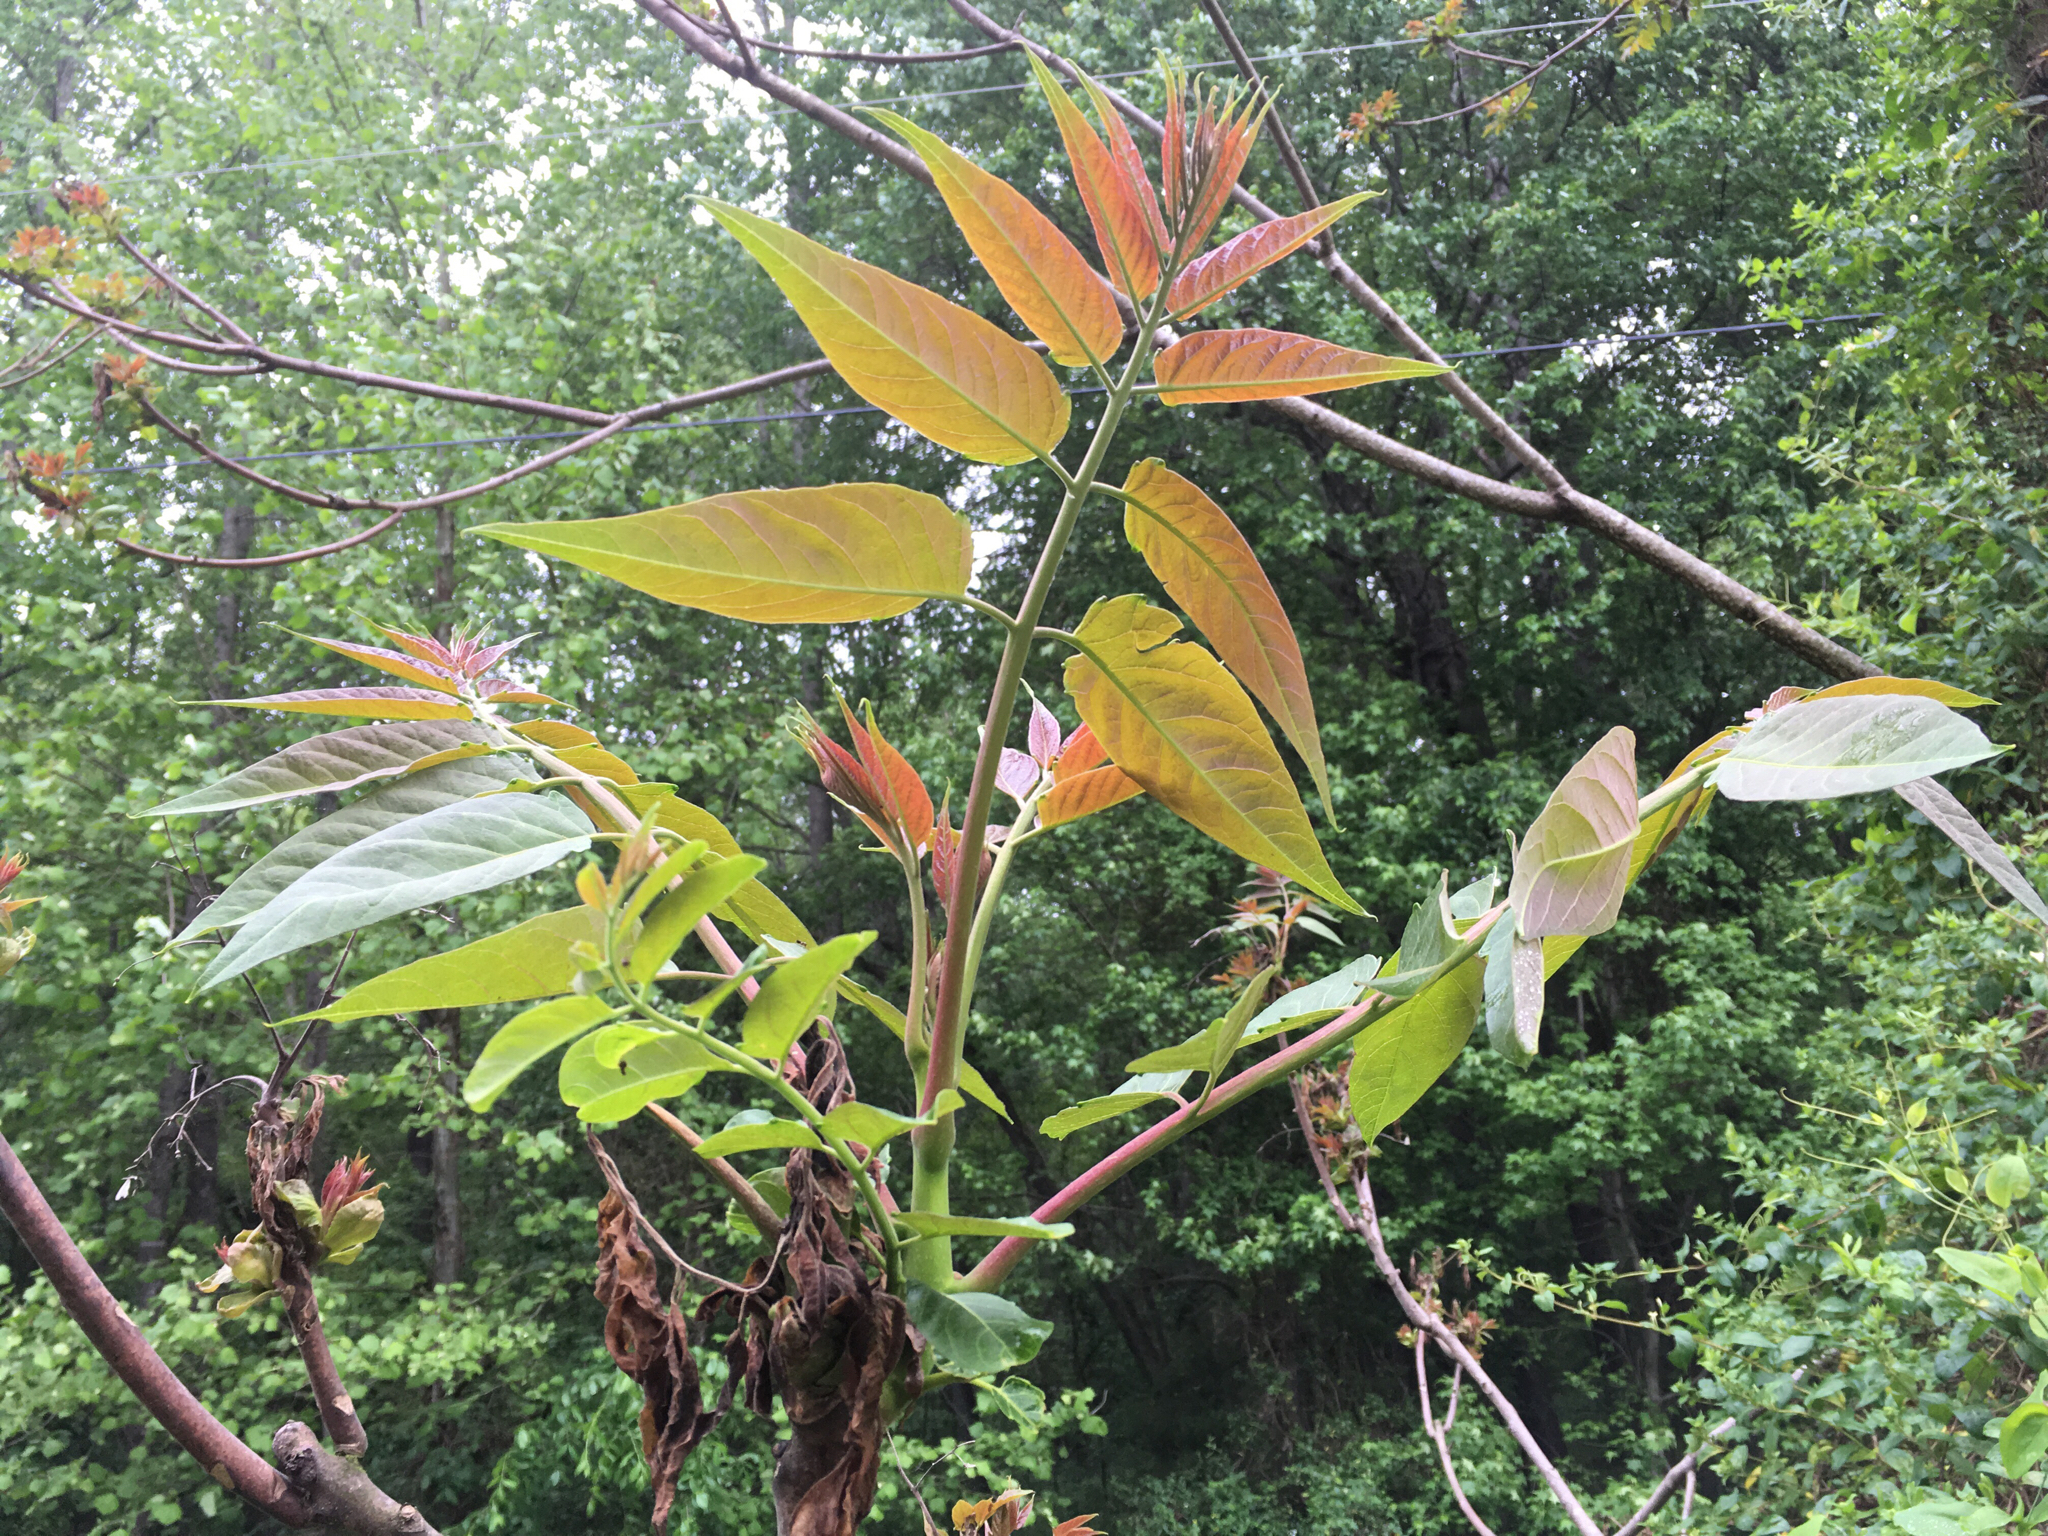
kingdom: Plantae
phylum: Tracheophyta
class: Magnoliopsida
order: Sapindales
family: Simaroubaceae
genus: Ailanthus
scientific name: Ailanthus altissima
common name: Tree-of-heaven
